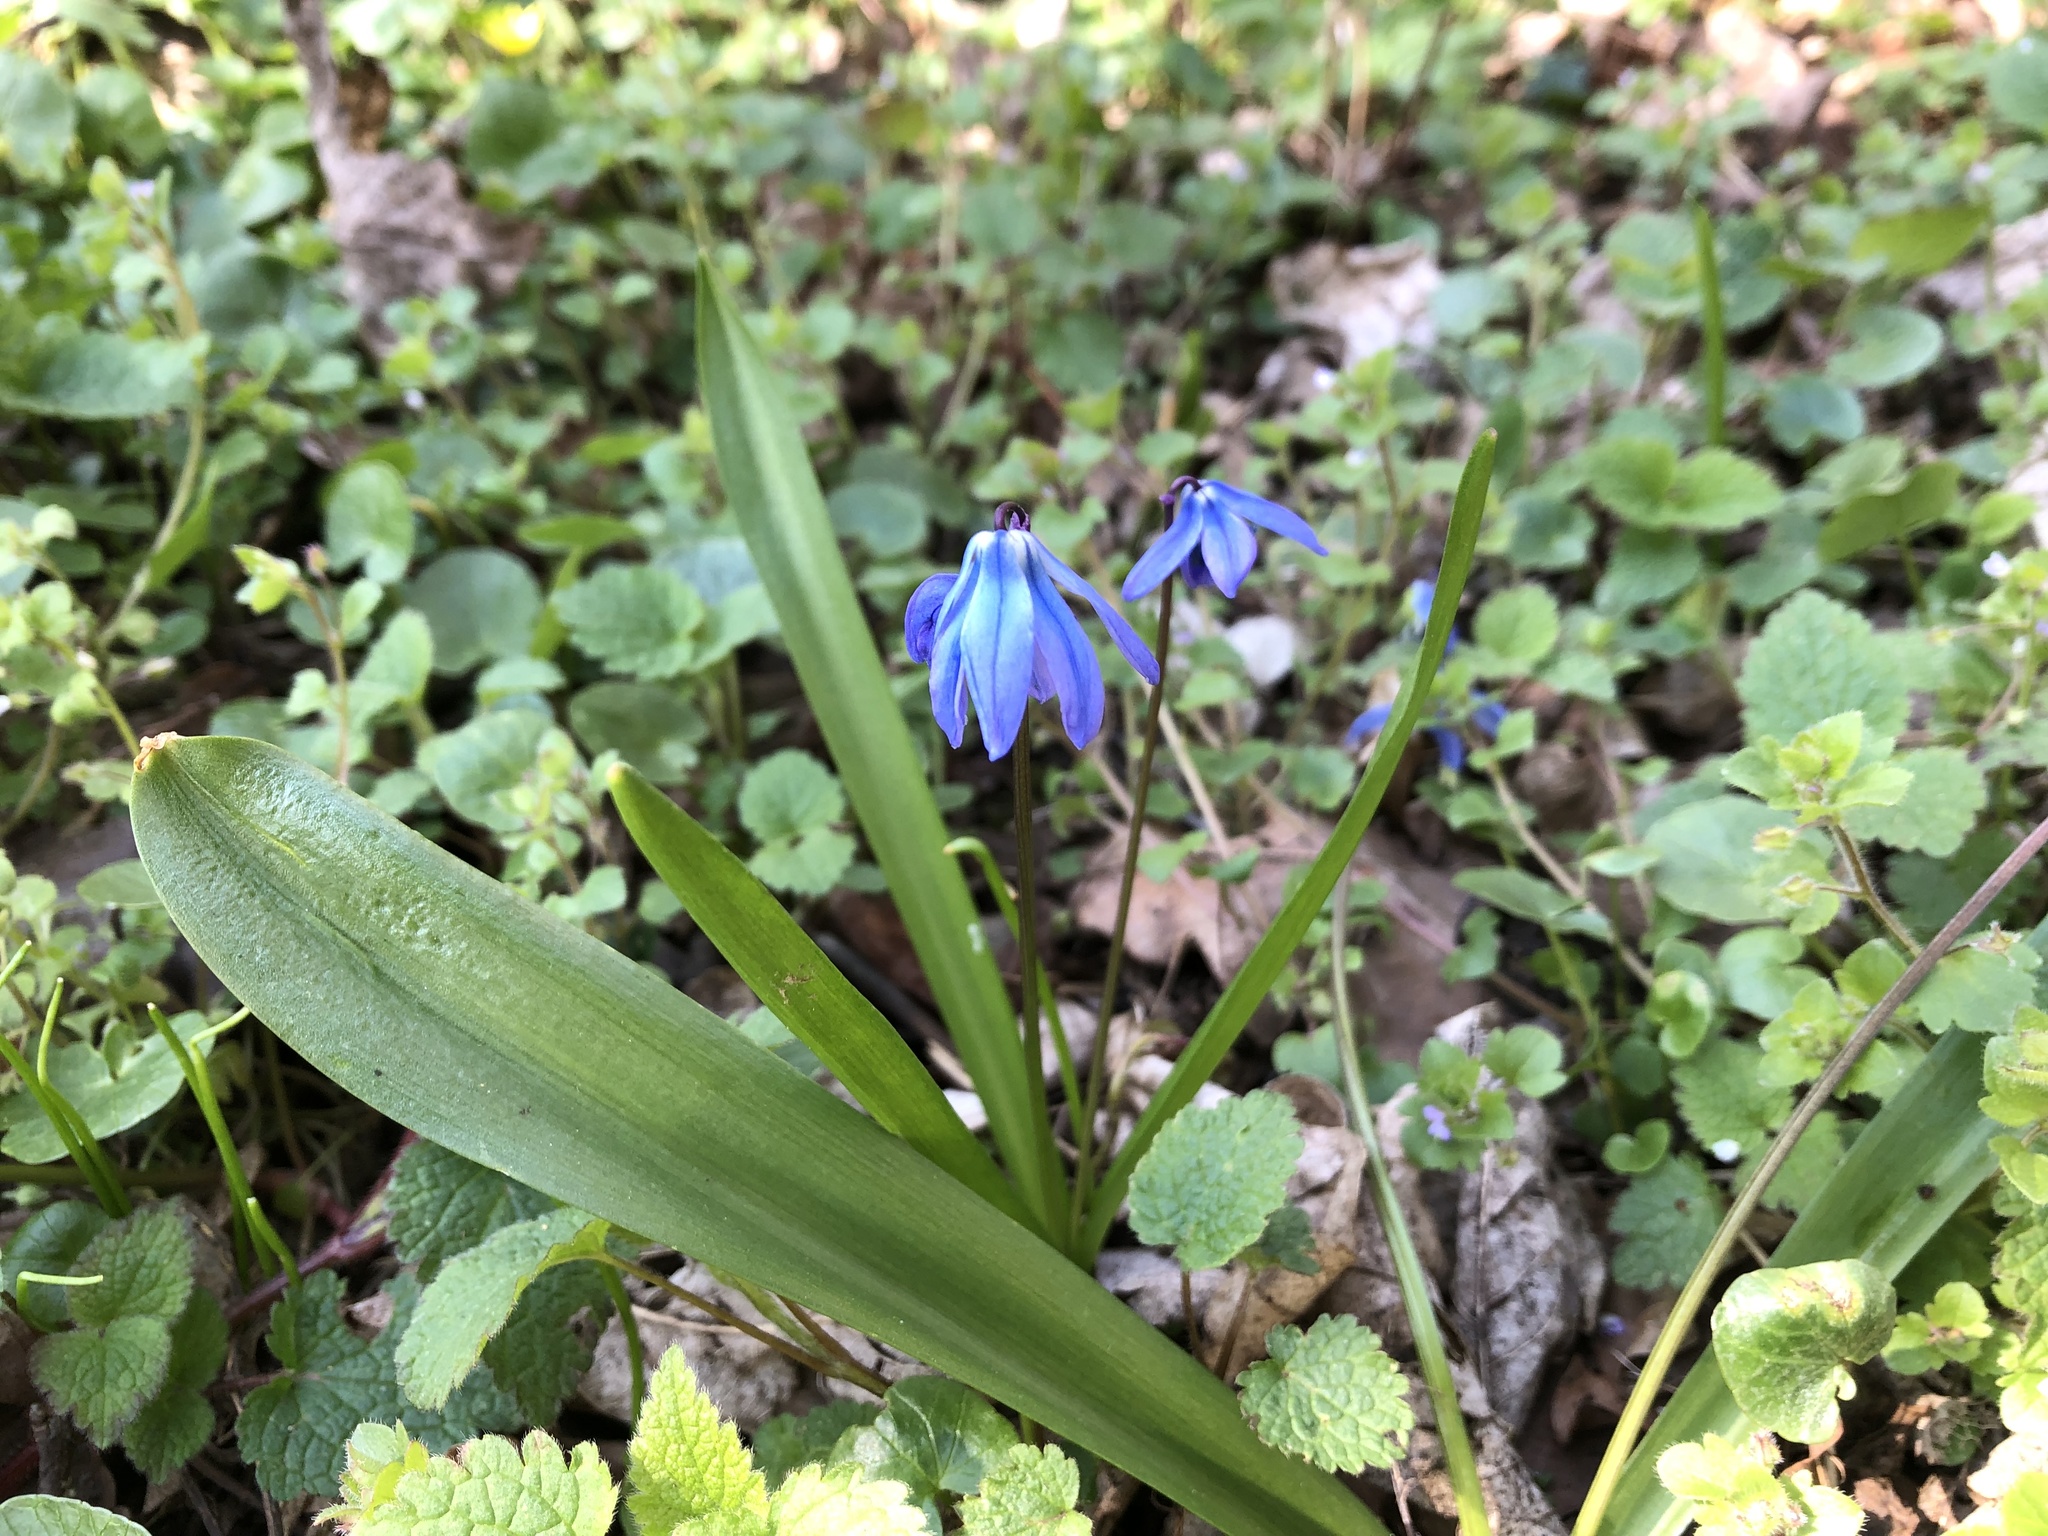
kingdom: Plantae
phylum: Tracheophyta
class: Liliopsida
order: Asparagales
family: Asparagaceae
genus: Scilla
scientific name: Scilla siberica
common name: Siberian squill
